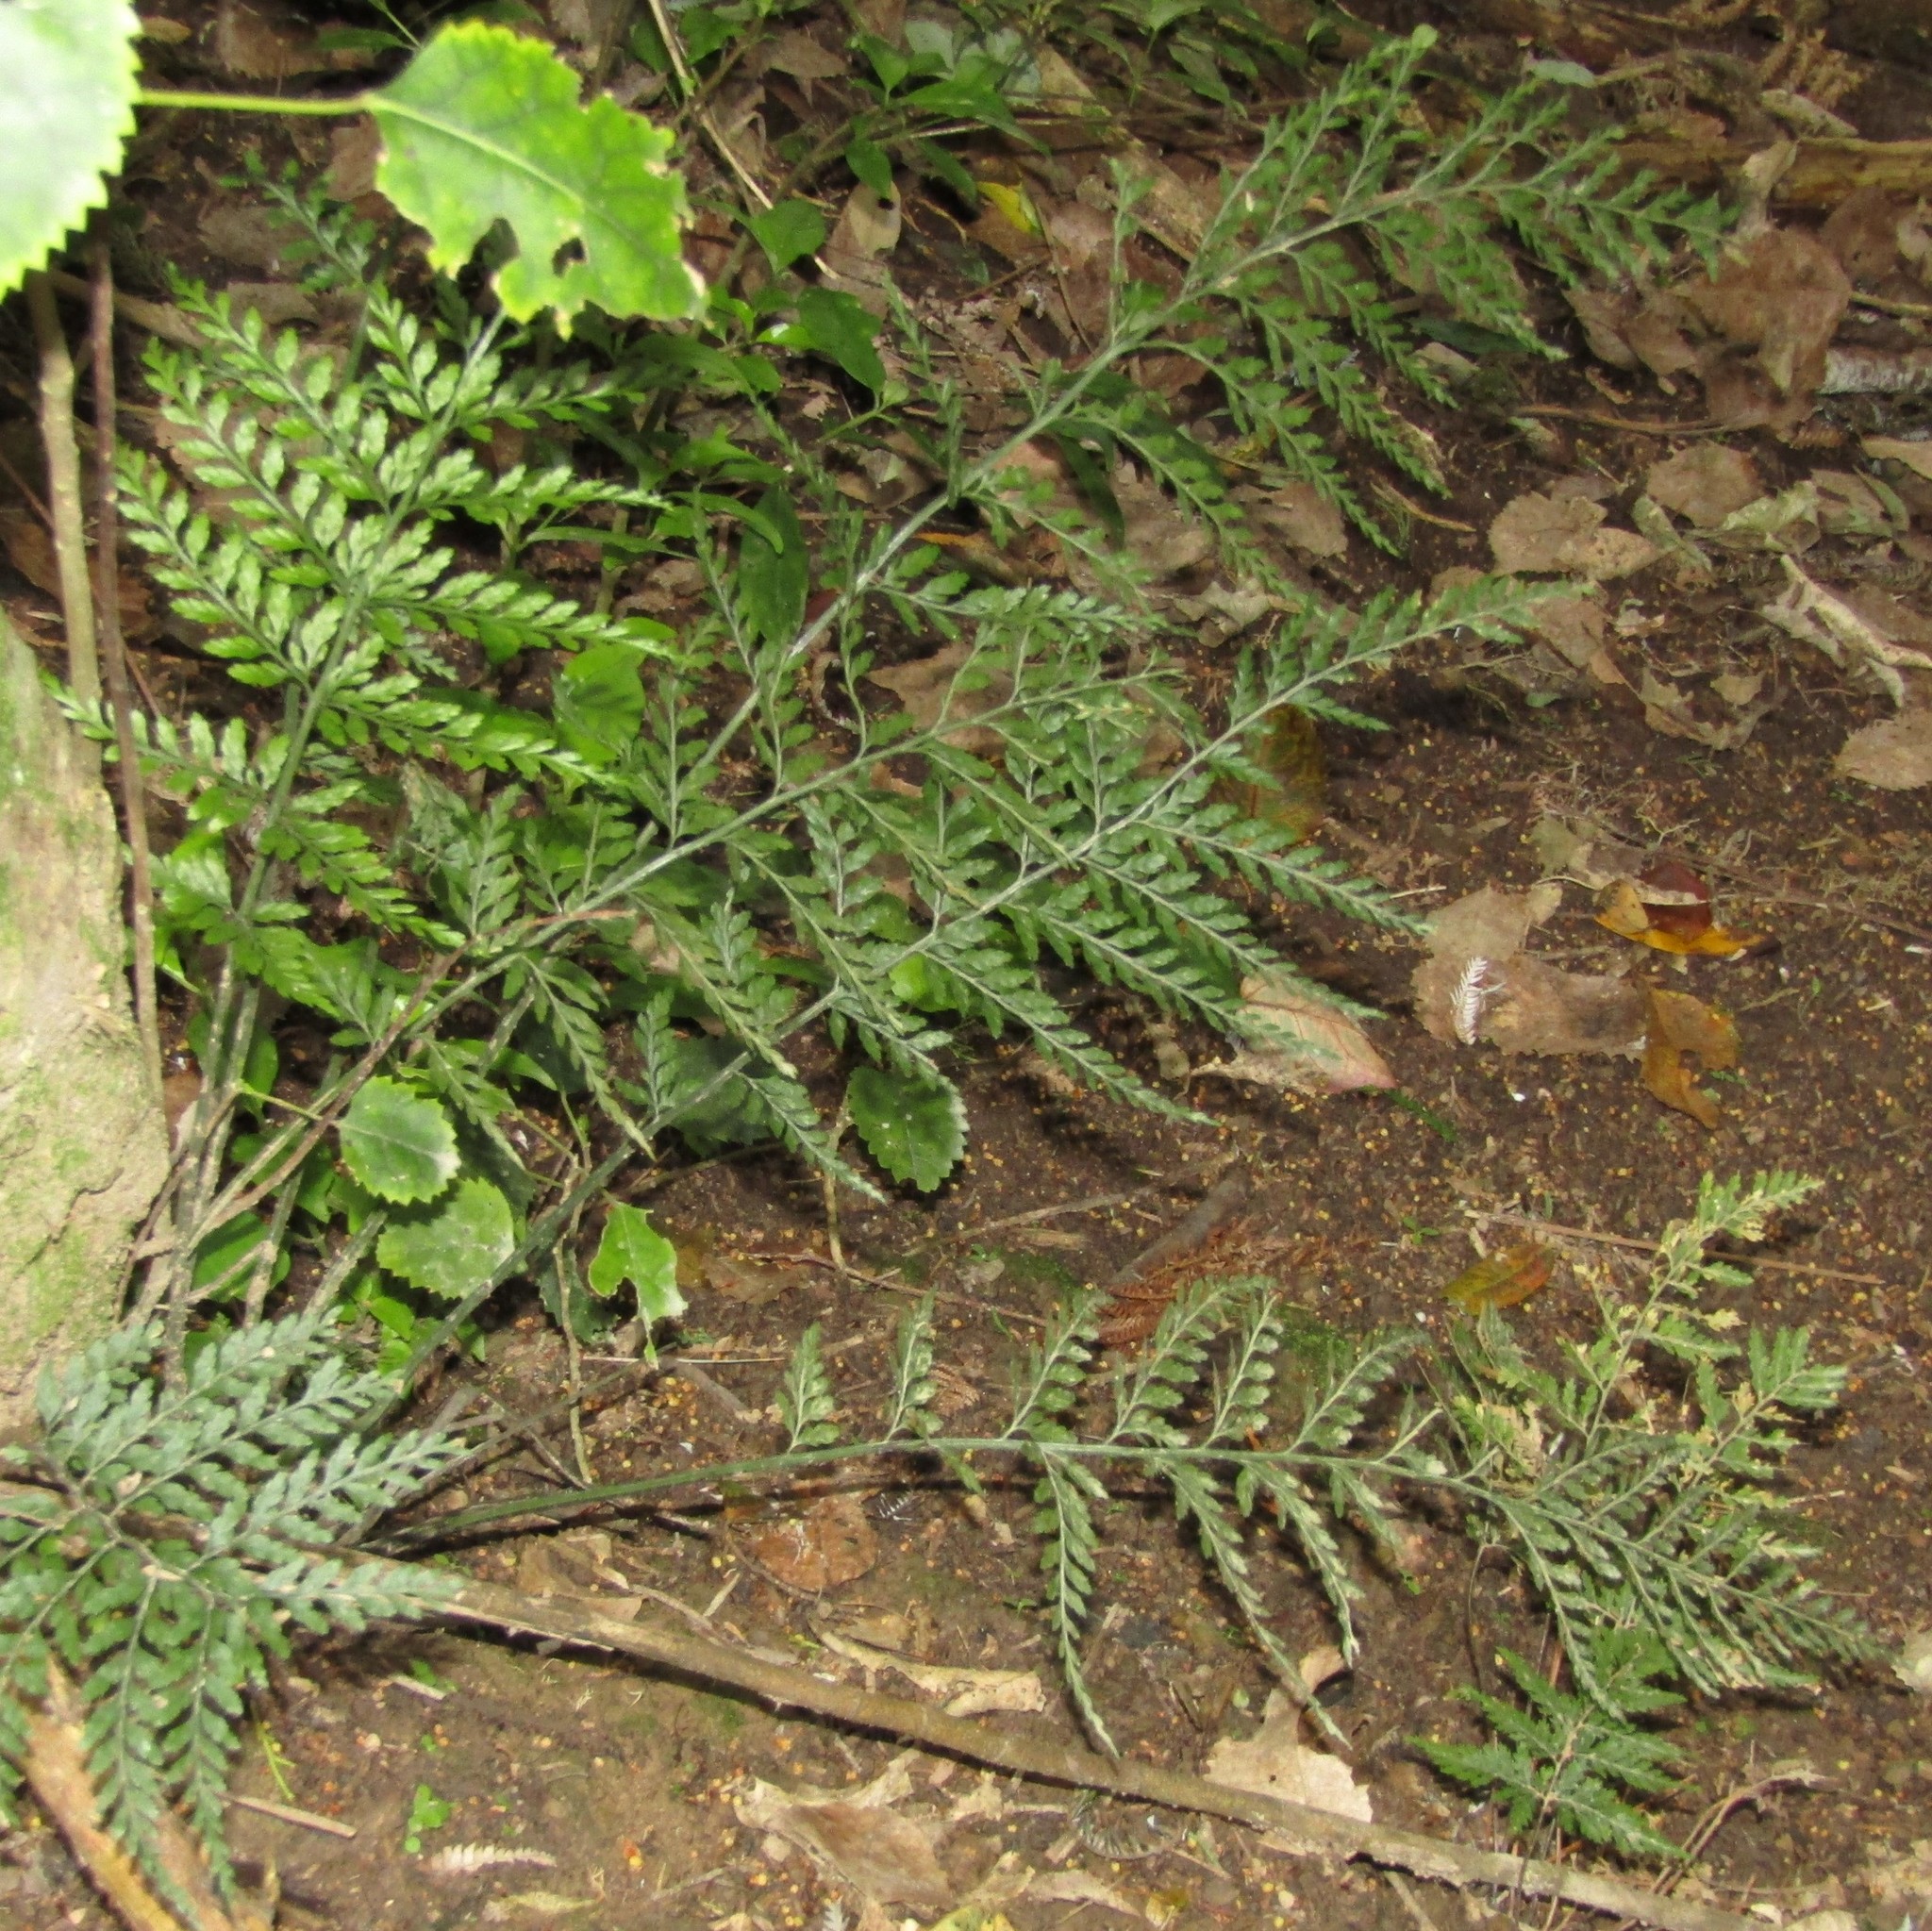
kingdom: Plantae
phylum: Tracheophyta
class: Polypodiopsida
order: Polypodiales
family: Aspleniaceae
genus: Asplenium
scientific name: Asplenium
